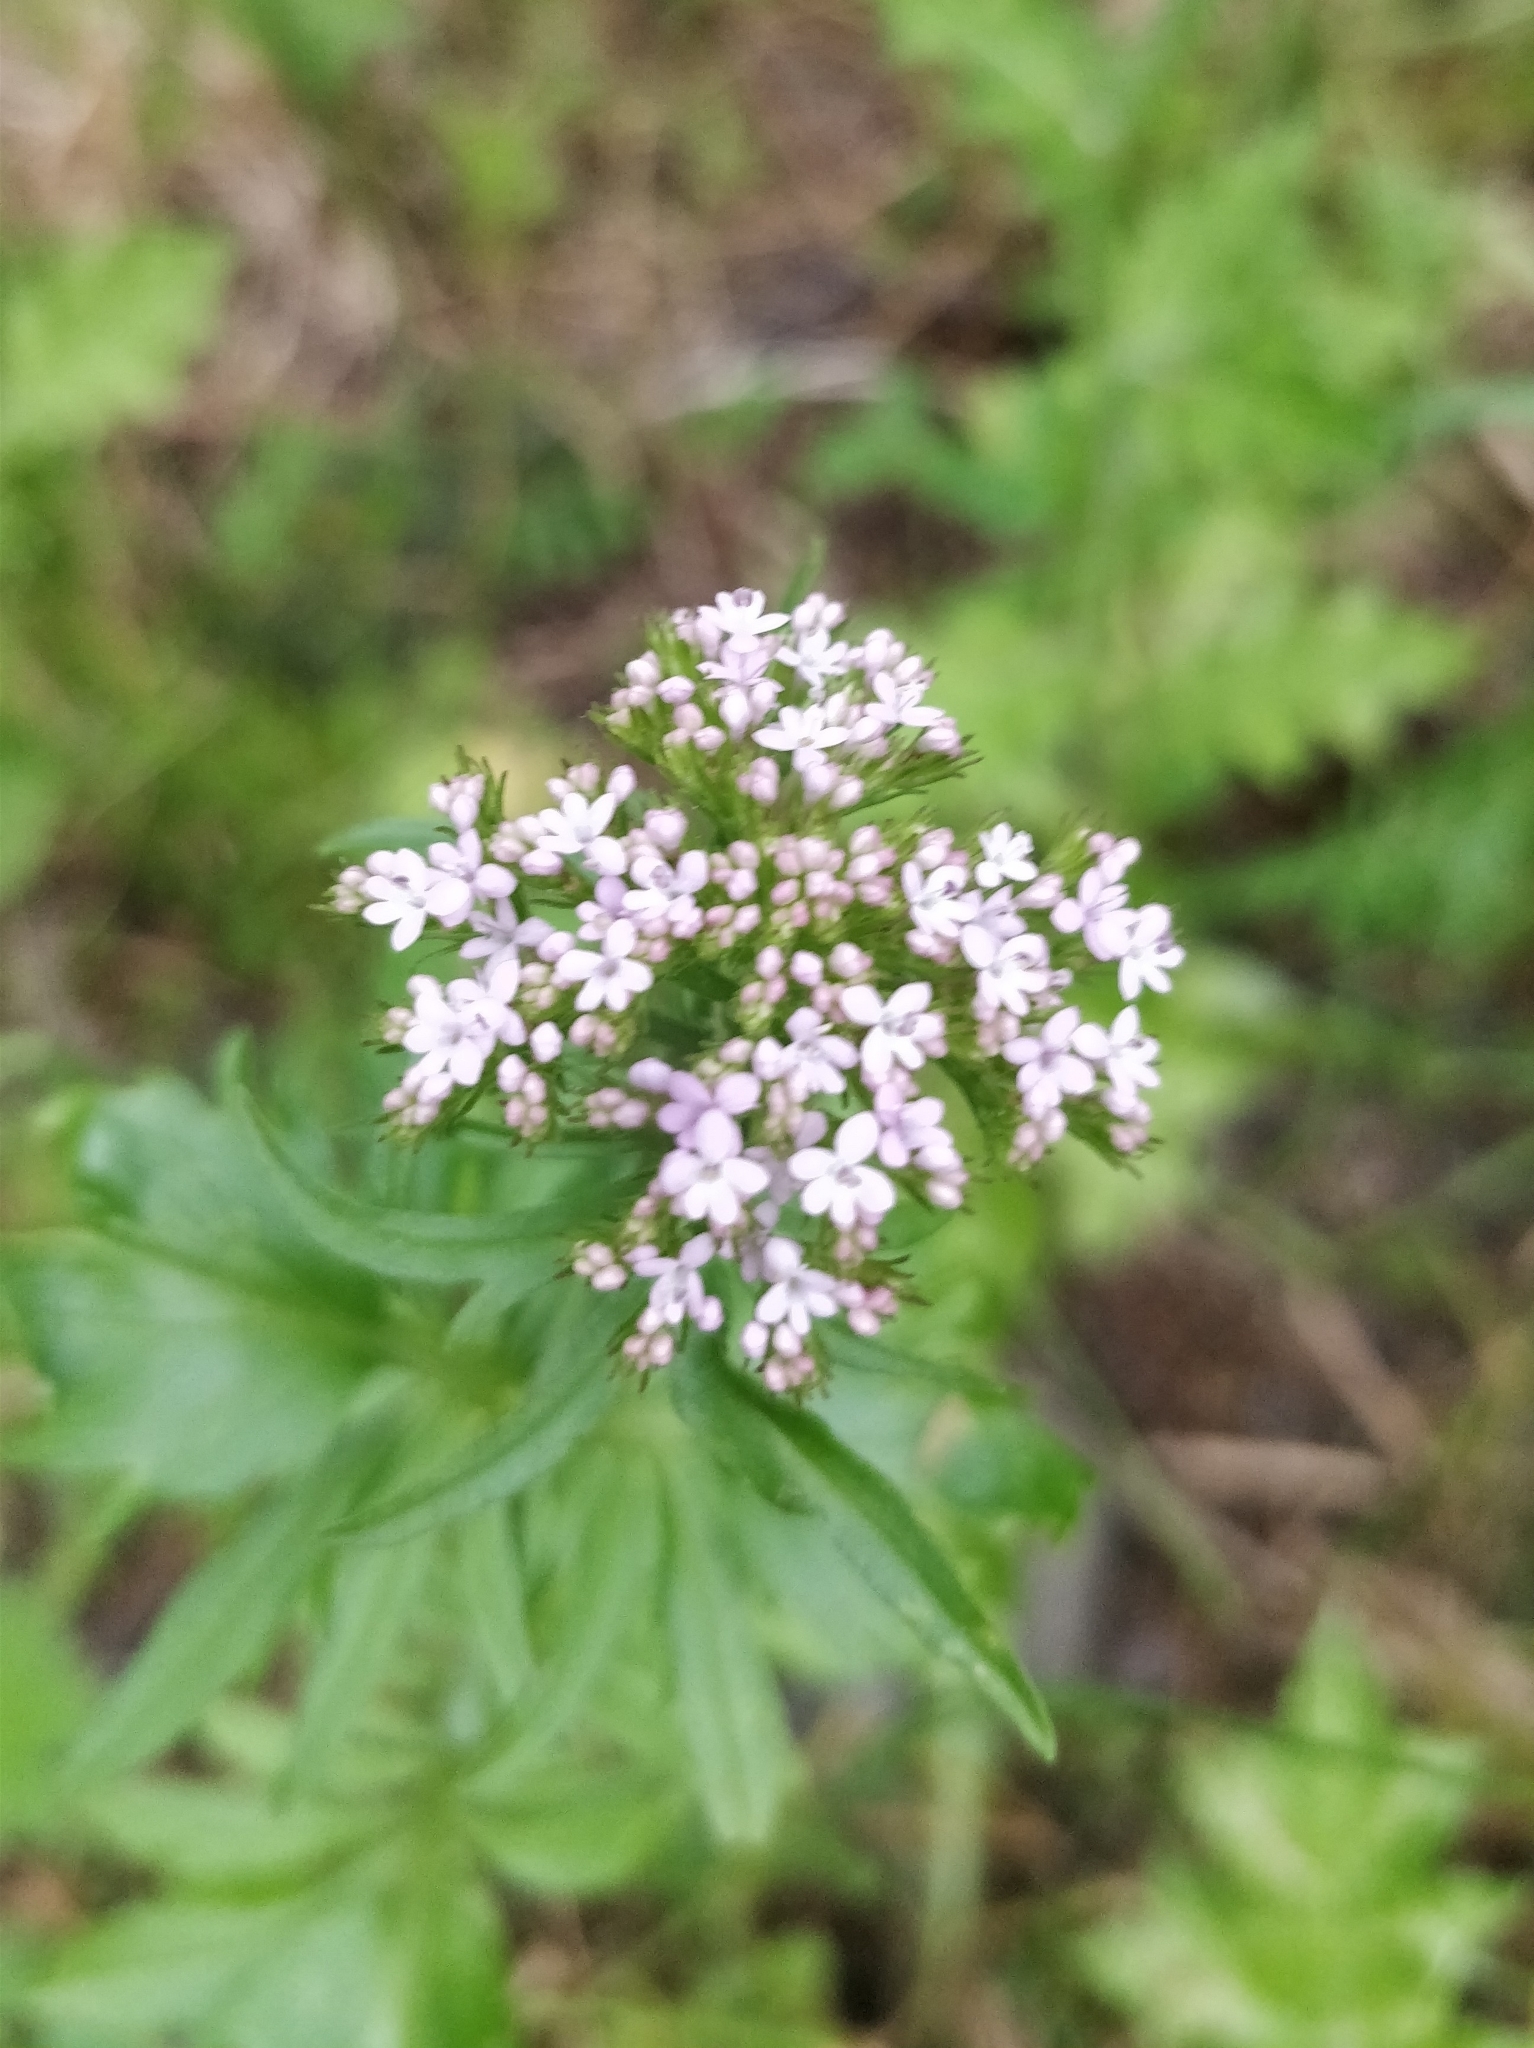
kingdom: Plantae
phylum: Tracheophyta
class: Magnoliopsida
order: Dipsacales
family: Caprifoliaceae
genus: Centranthus
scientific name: Centranthus calcitrapae
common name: Annual valerian
